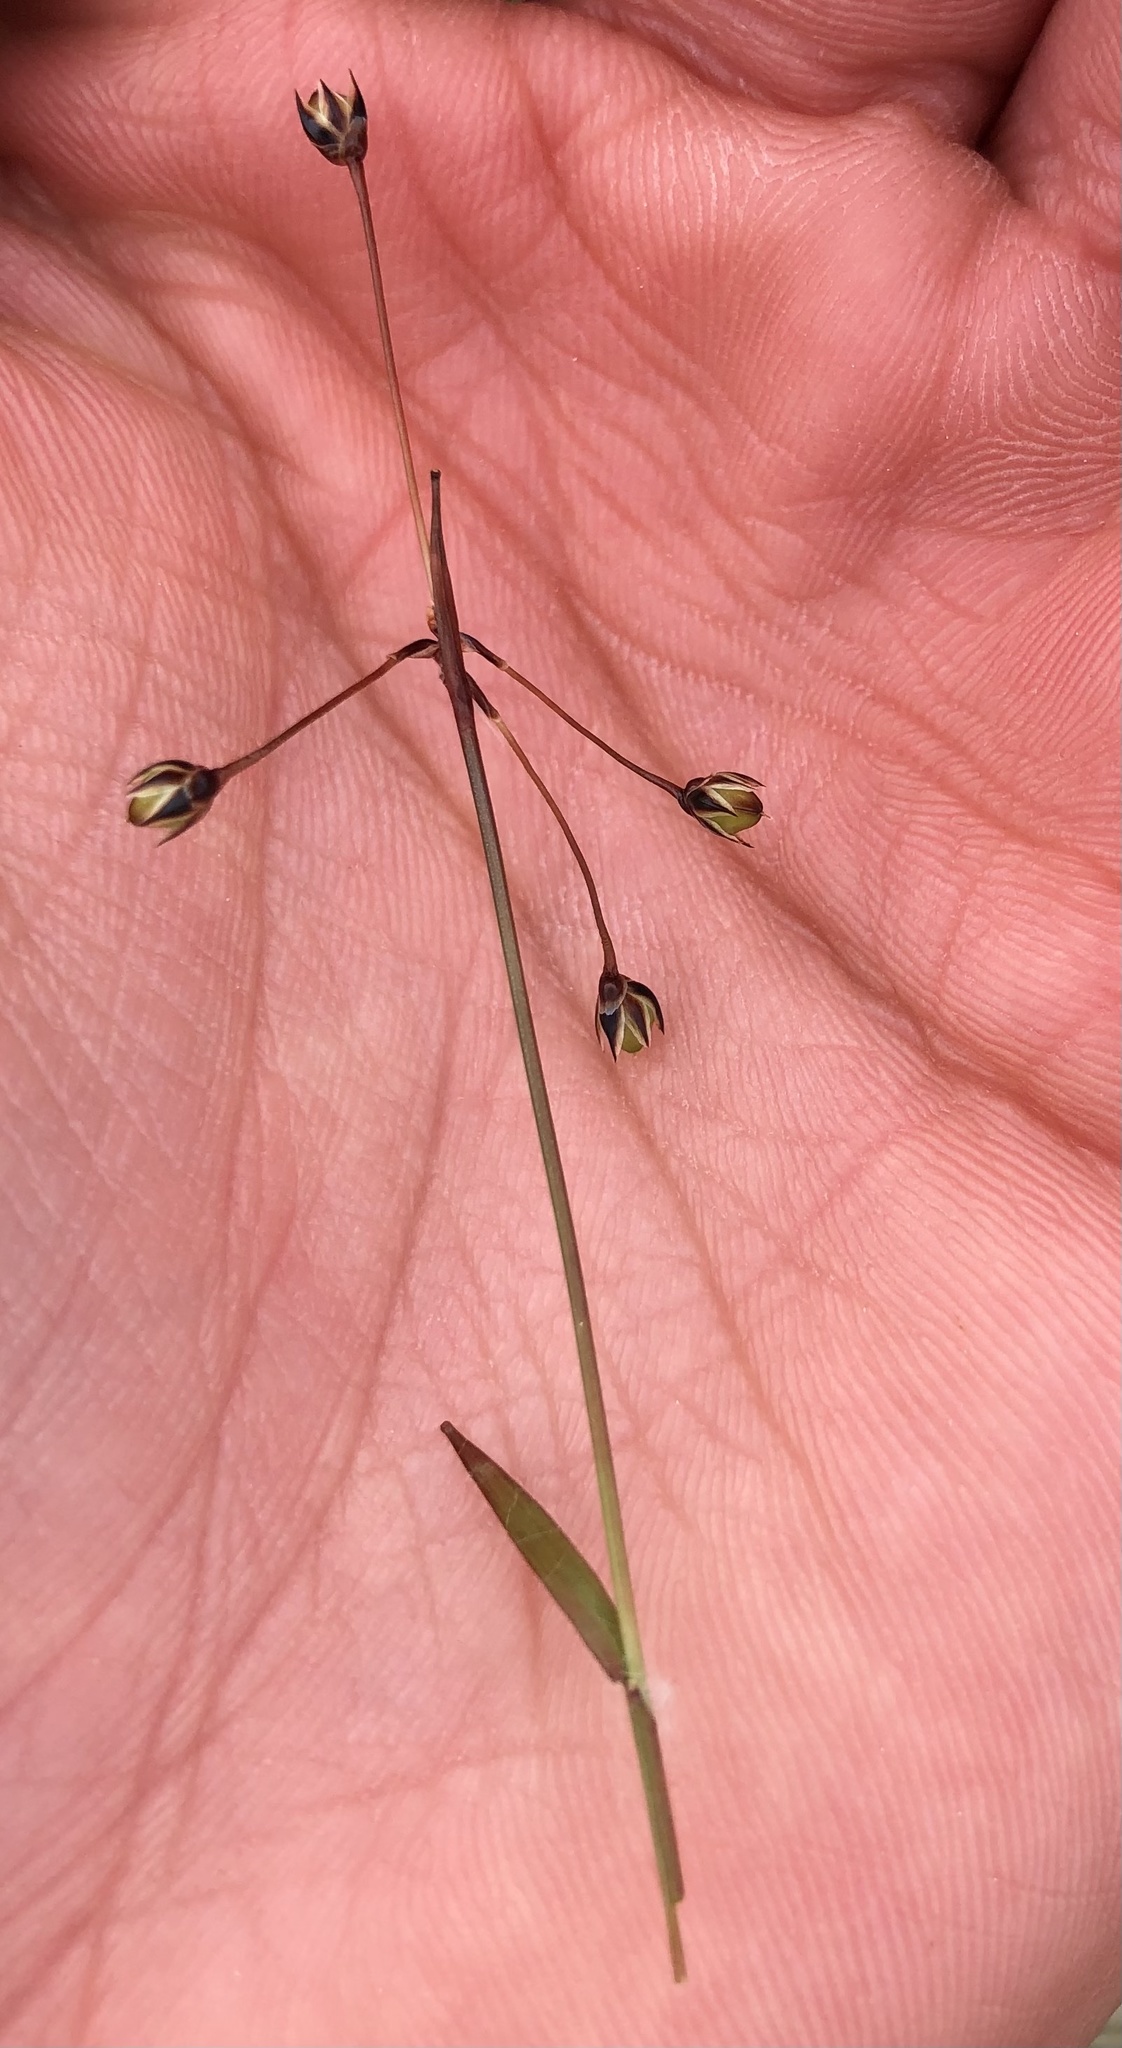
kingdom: Plantae
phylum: Tracheophyta
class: Liliopsida
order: Poales
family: Juncaceae
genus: Luzula
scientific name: Luzula pilosa
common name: Hairy wood-rush
